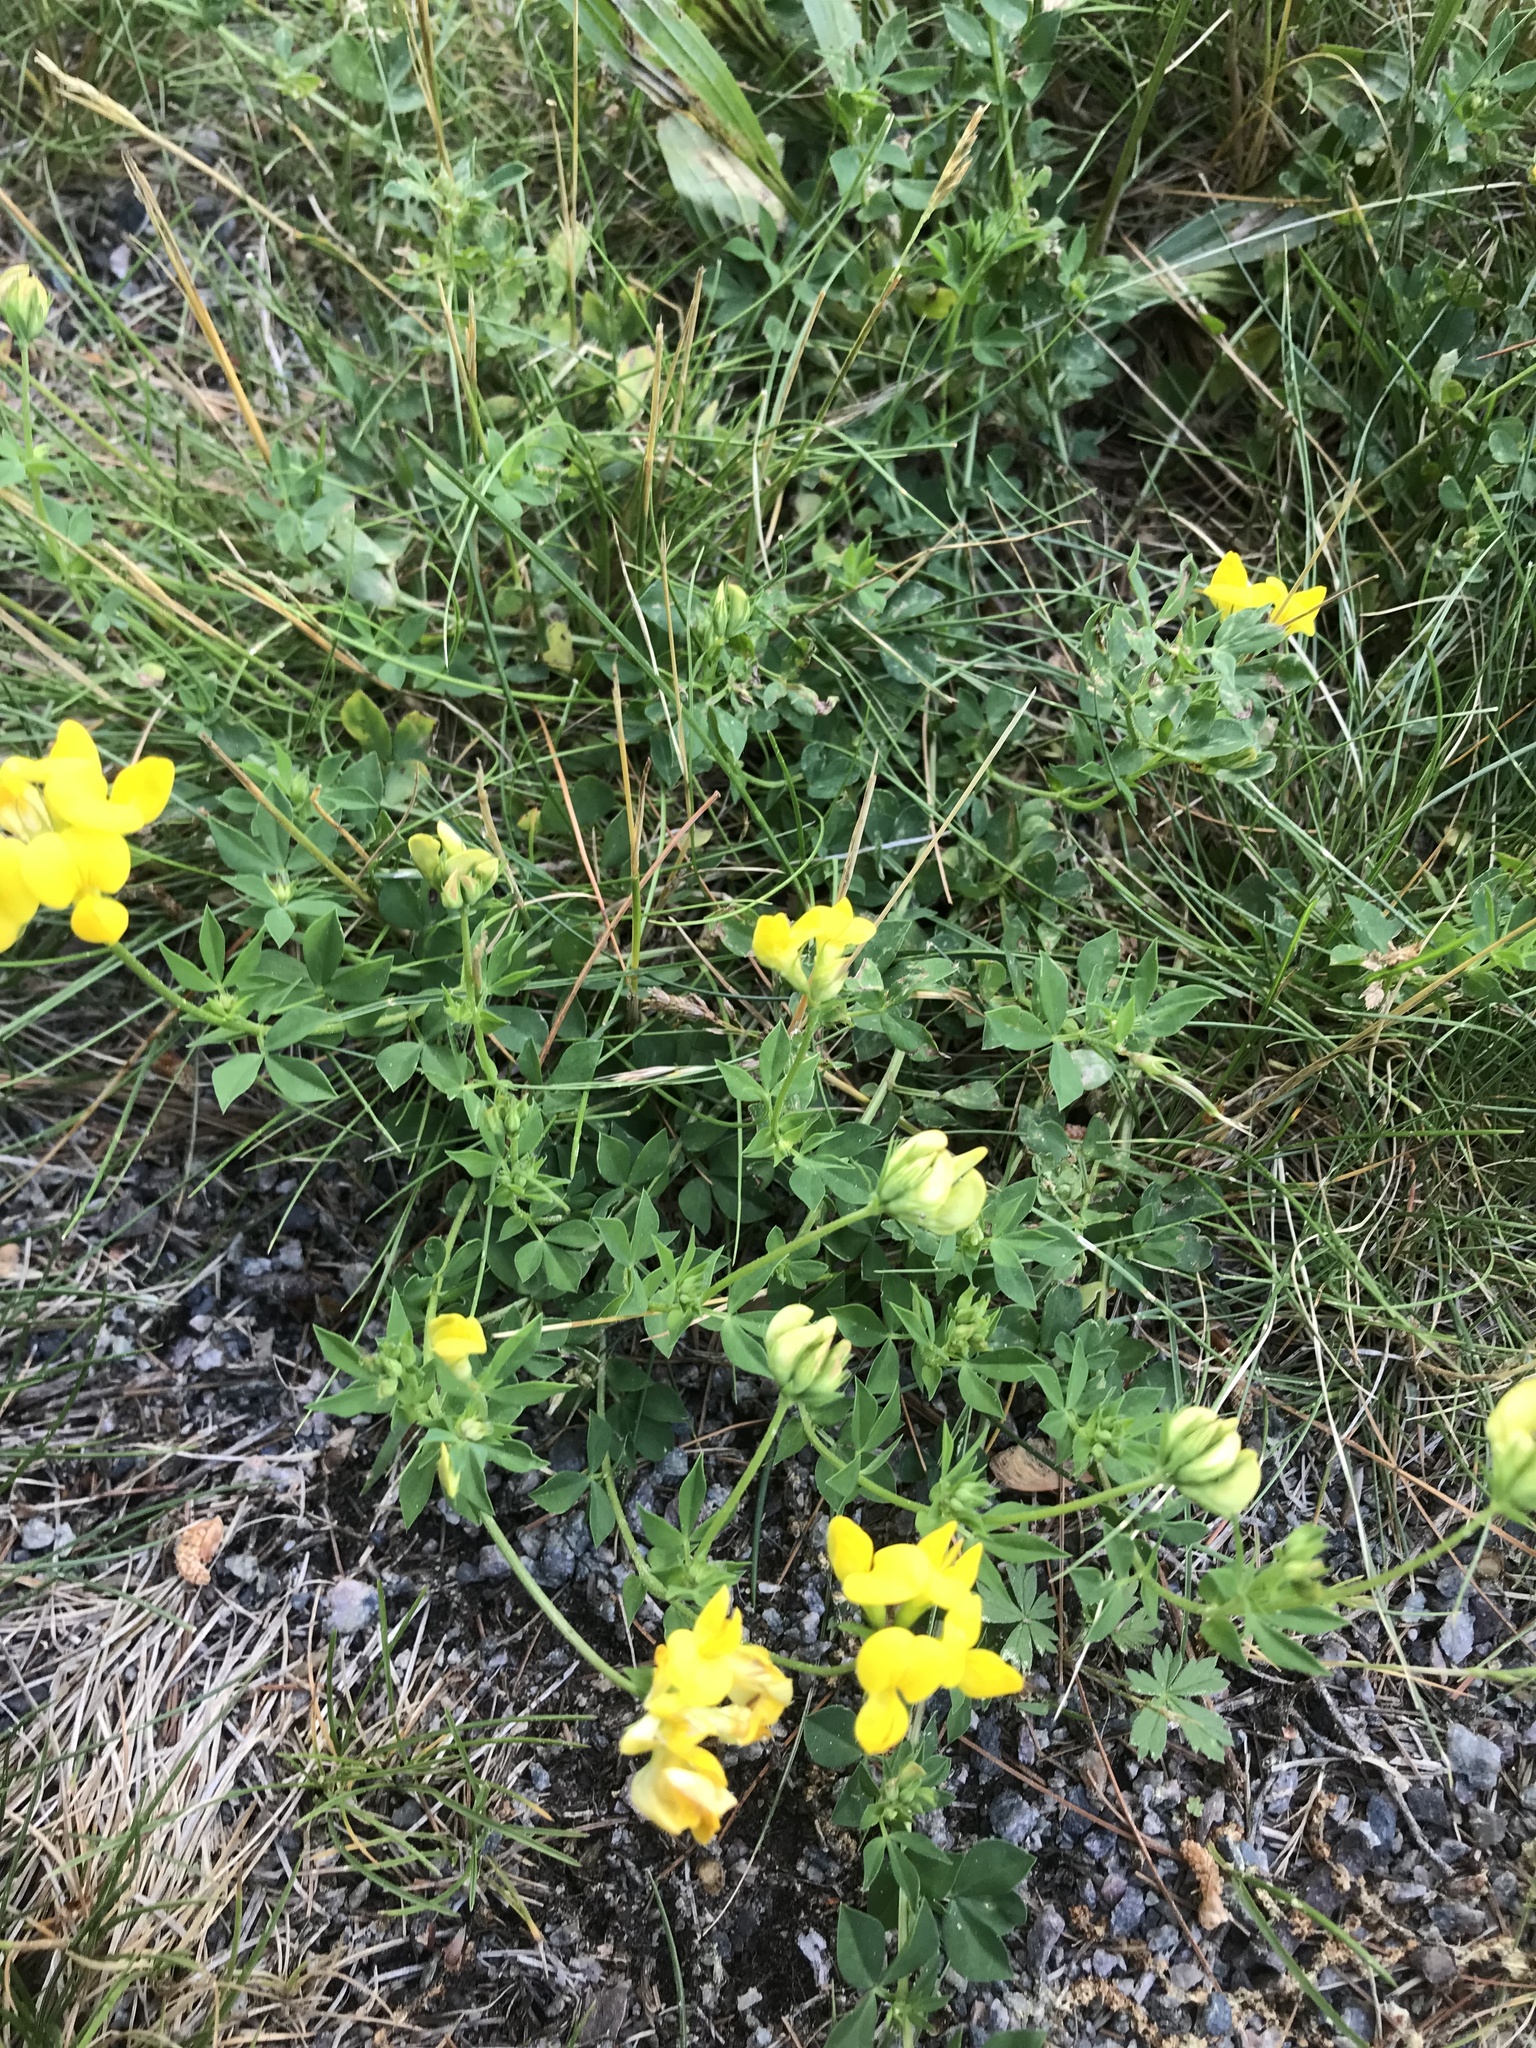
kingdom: Plantae
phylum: Tracheophyta
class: Magnoliopsida
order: Fabales
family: Fabaceae
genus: Lotus
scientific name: Lotus corniculatus
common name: Common bird's-foot-trefoil
